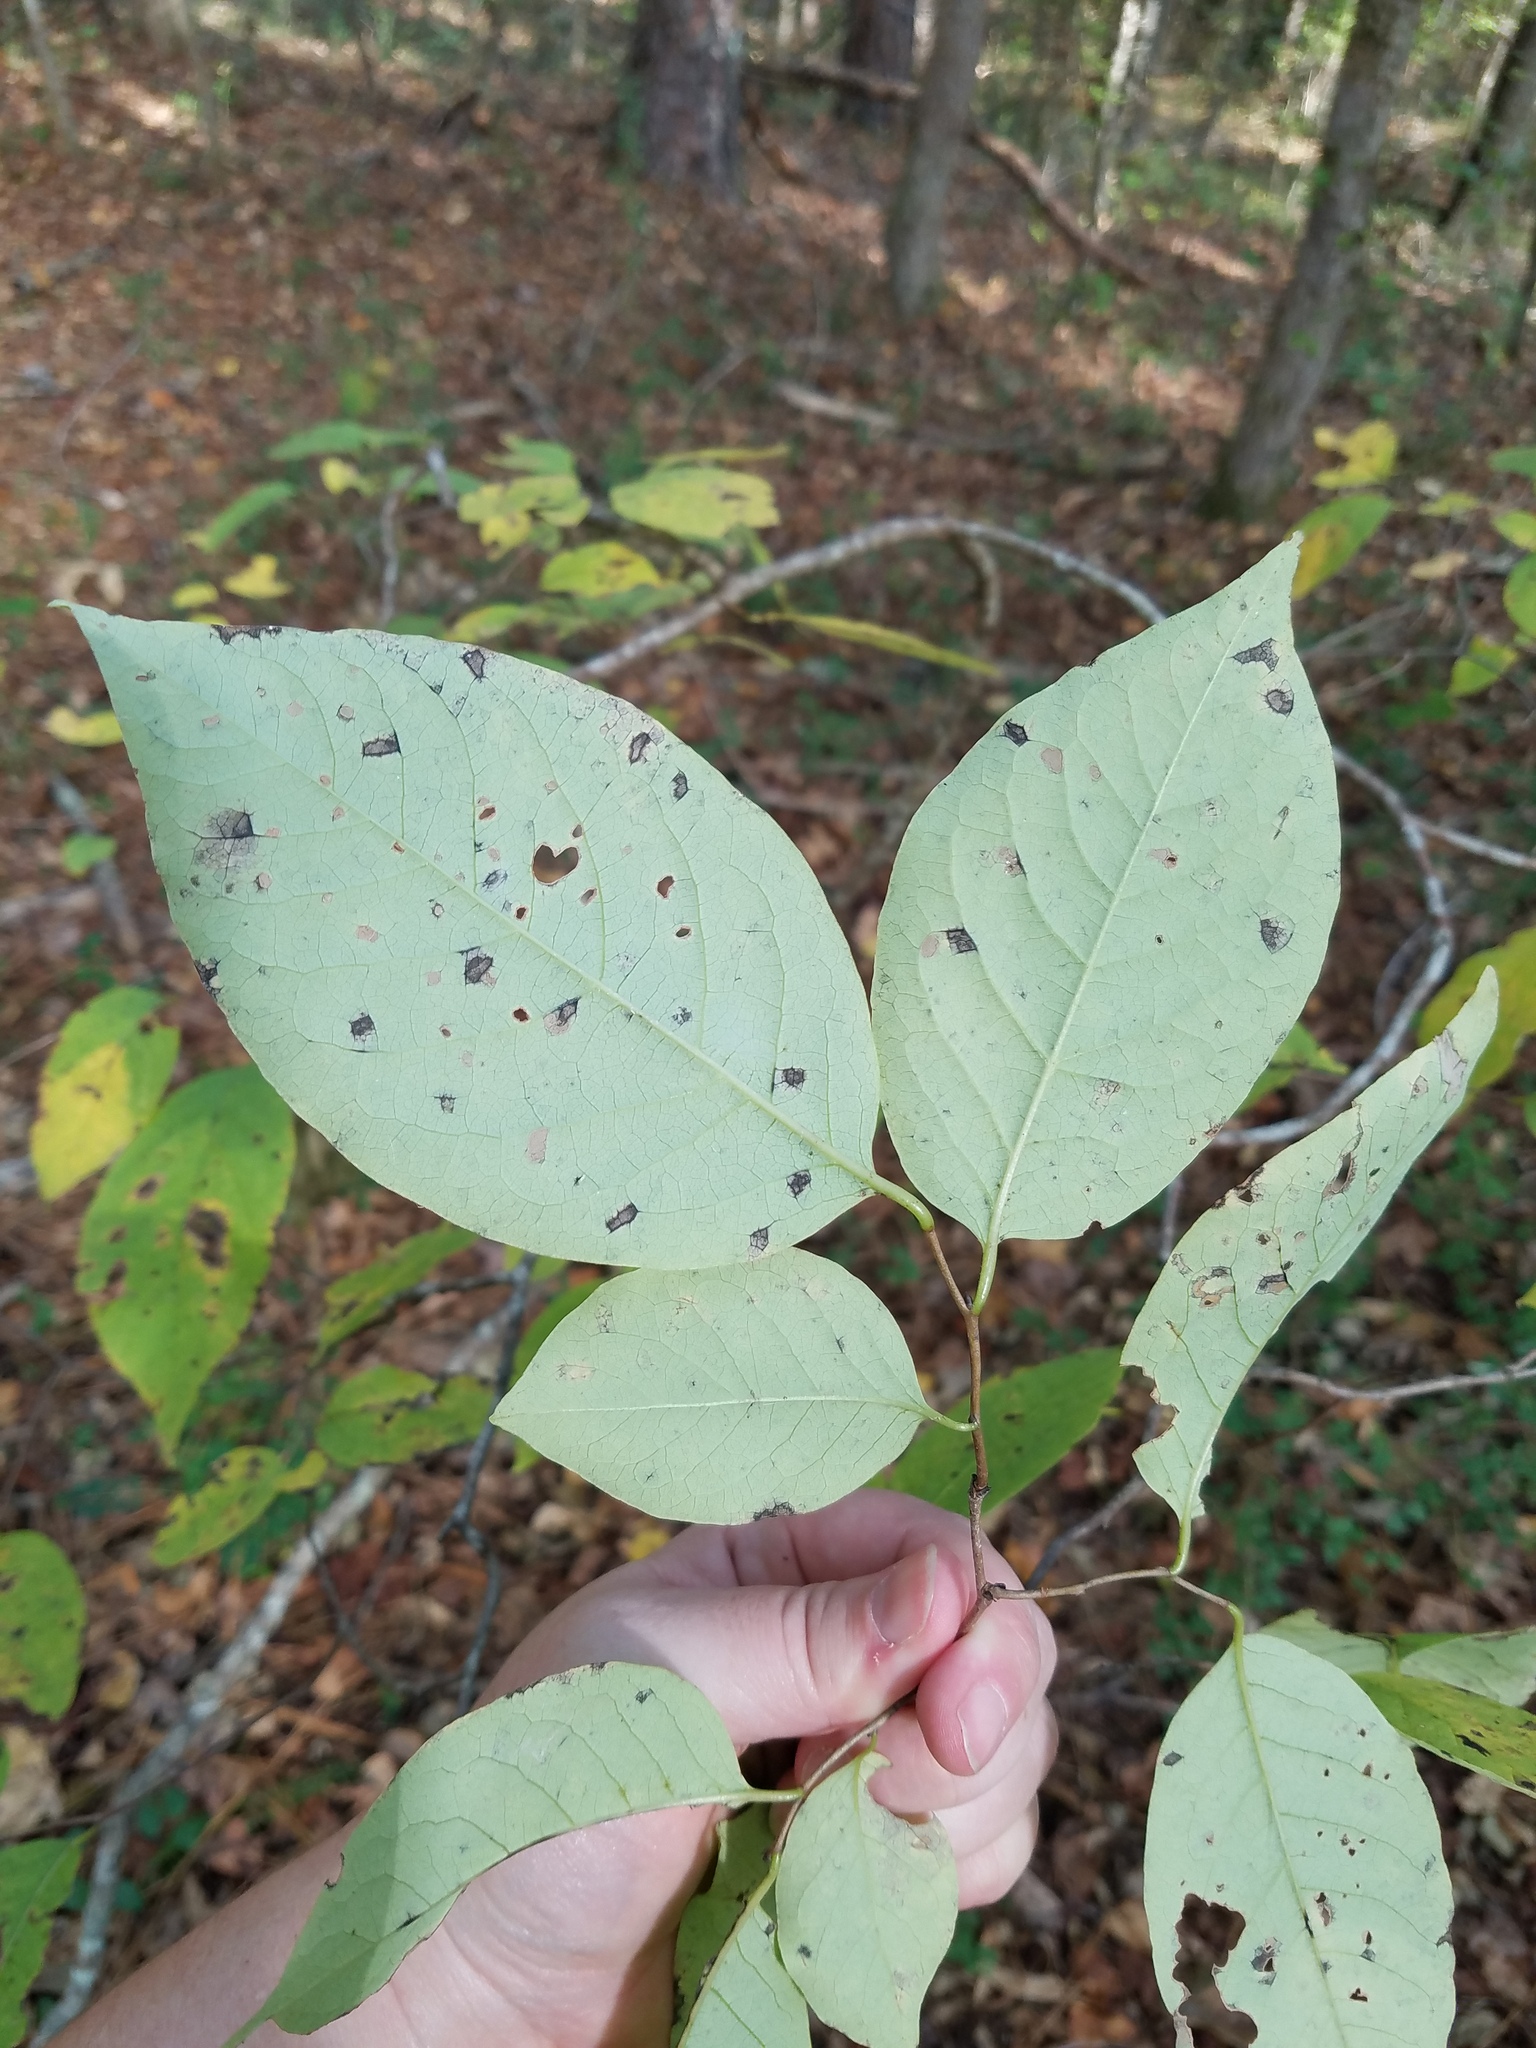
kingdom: Plantae
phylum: Tracheophyta
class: Magnoliopsida
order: Ericales
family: Ebenaceae
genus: Diospyros
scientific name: Diospyros virginiana
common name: Persimmon
